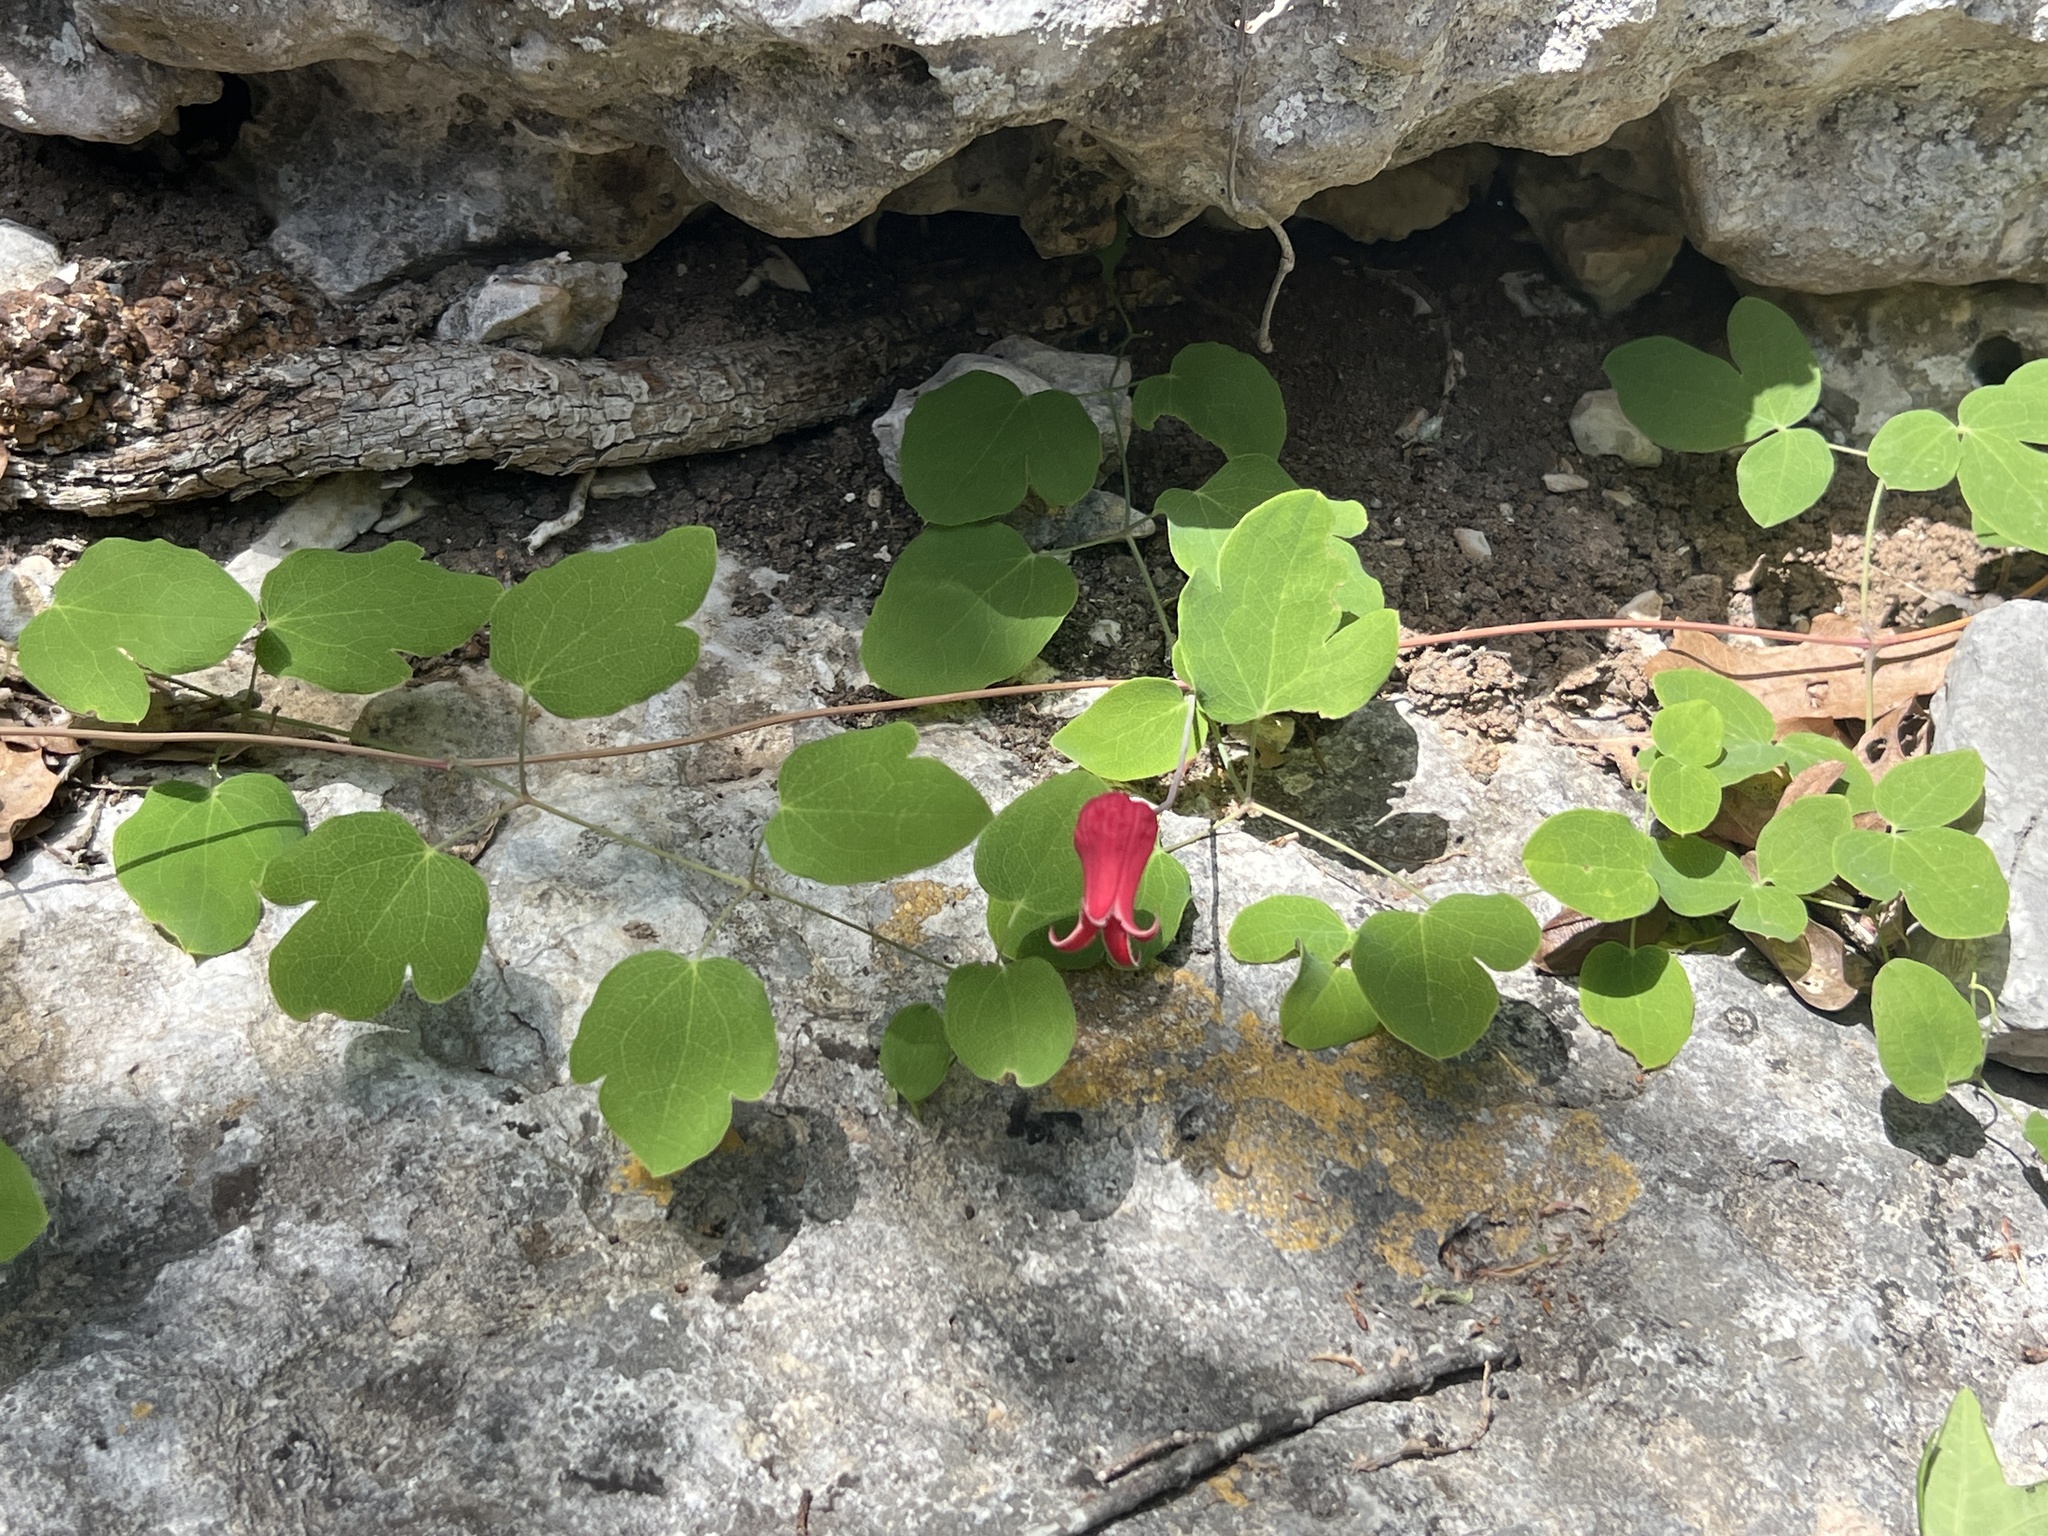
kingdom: Plantae
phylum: Tracheophyta
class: Magnoliopsida
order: Ranunculales
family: Ranunculaceae
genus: Clematis
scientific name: Clematis texensis
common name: Crimson clematis
